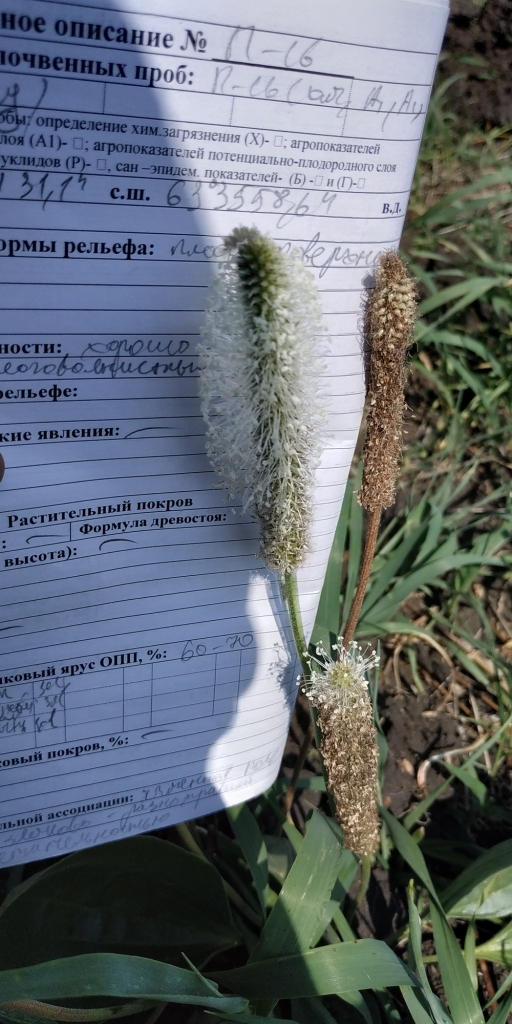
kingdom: Plantae
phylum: Tracheophyta
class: Magnoliopsida
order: Lamiales
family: Plantaginaceae
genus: Plantago
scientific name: Plantago media
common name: Hoary plantain
